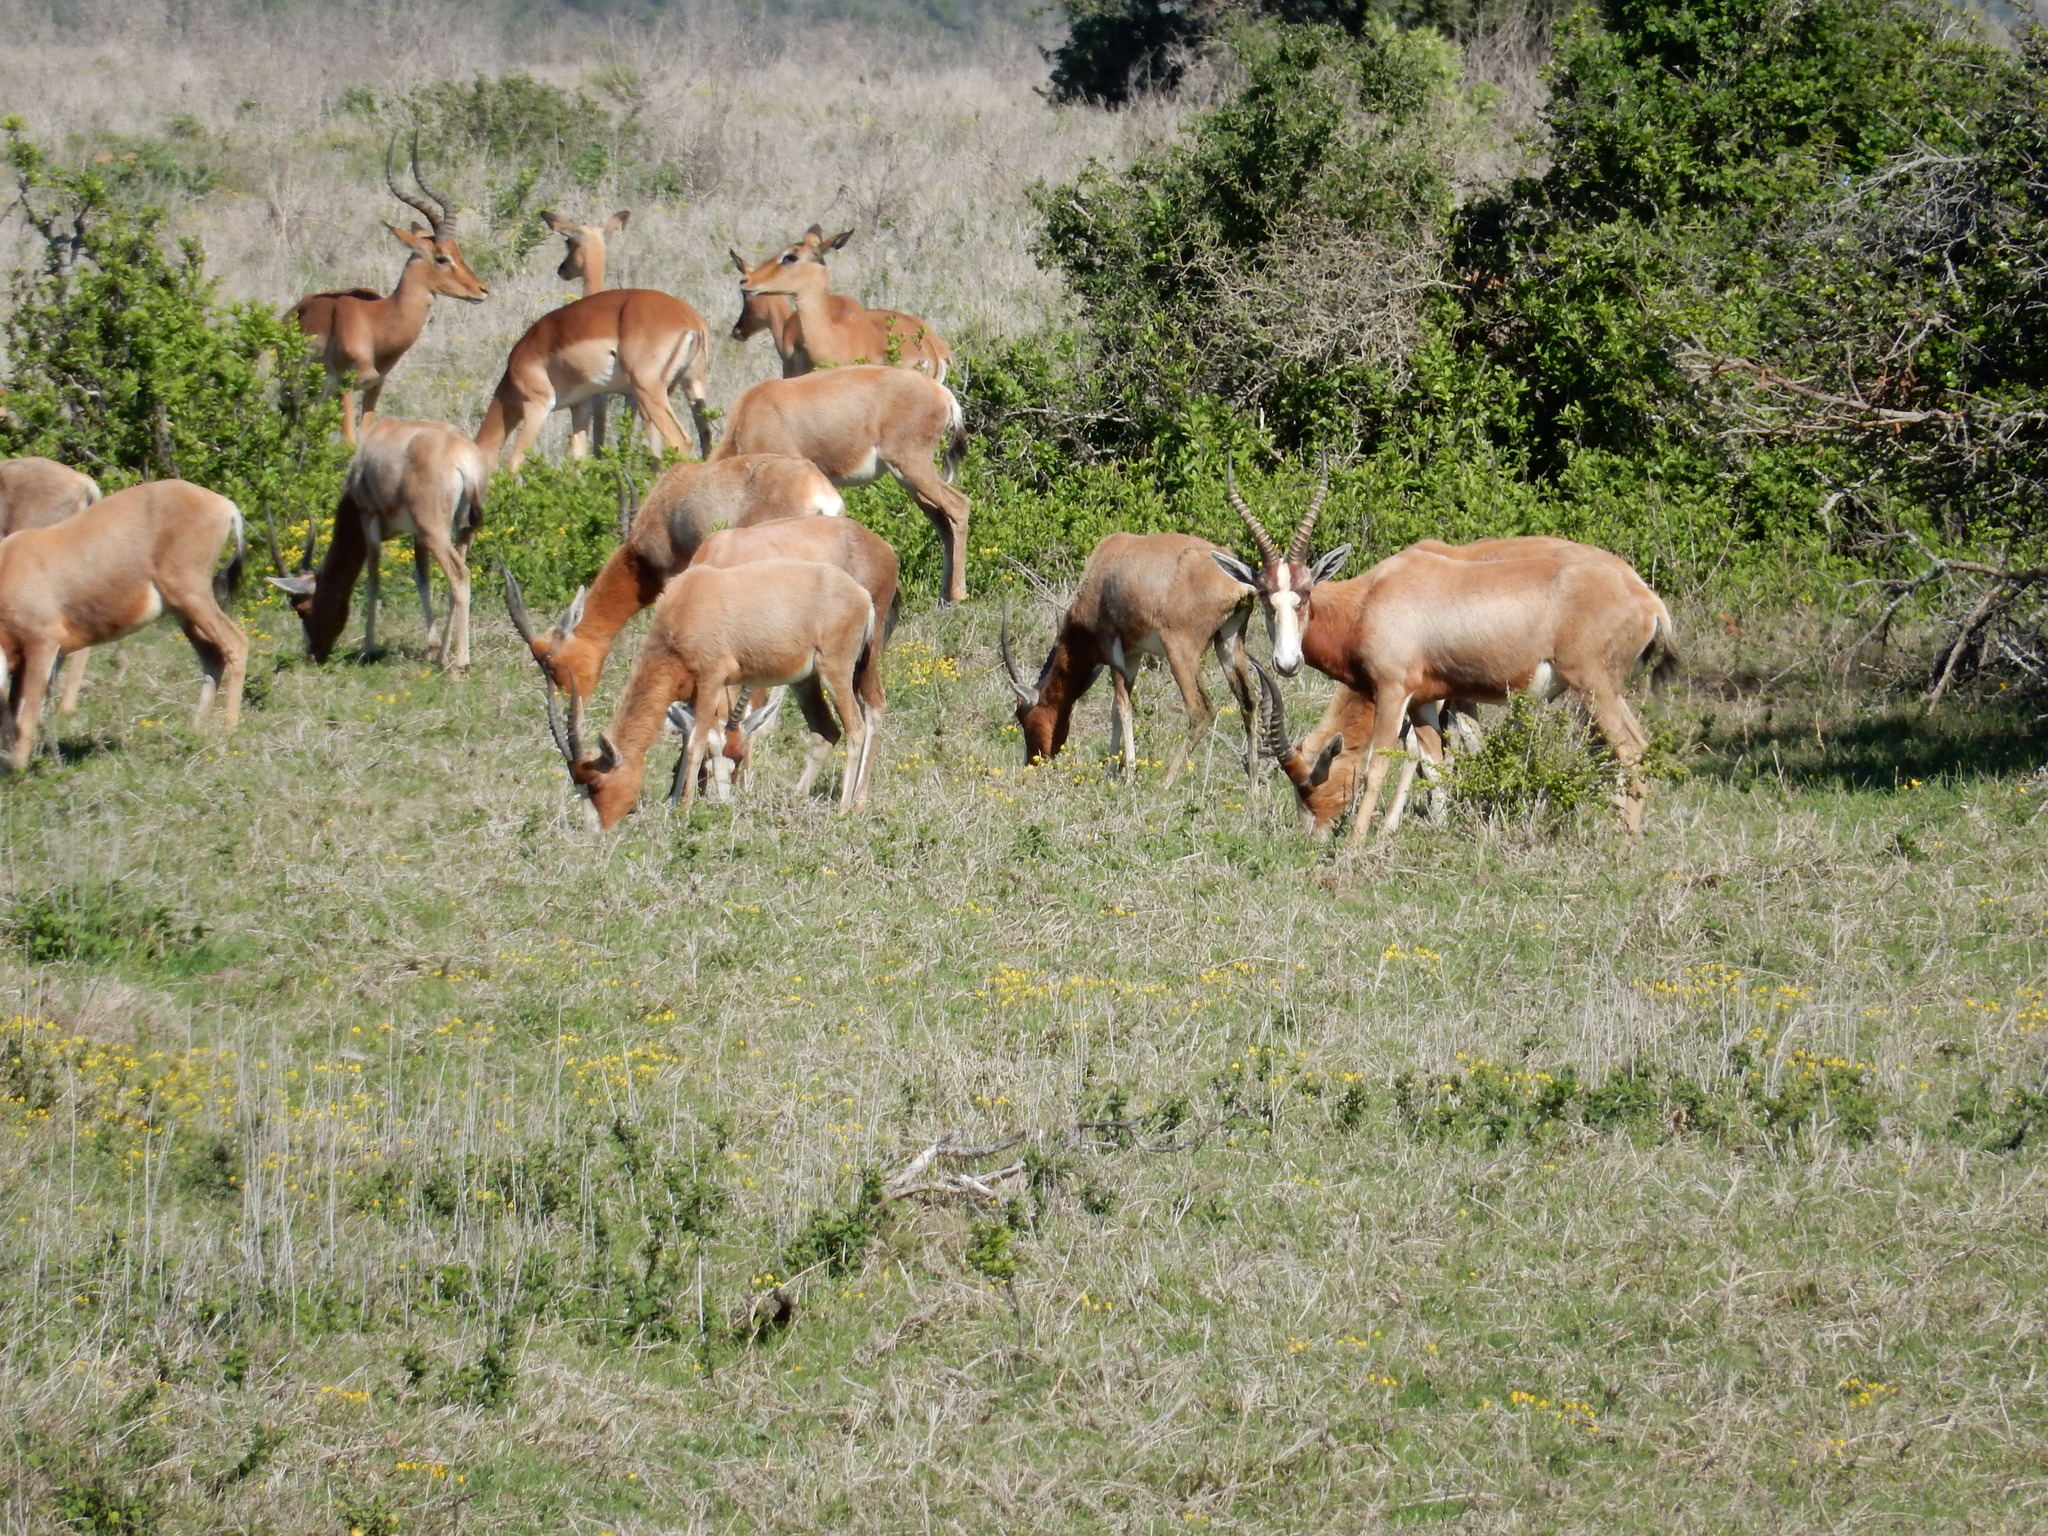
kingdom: Animalia
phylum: Chordata
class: Mammalia
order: Artiodactyla
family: Bovidae
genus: Damaliscus
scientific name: Damaliscus pygargus
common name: Bontebok
